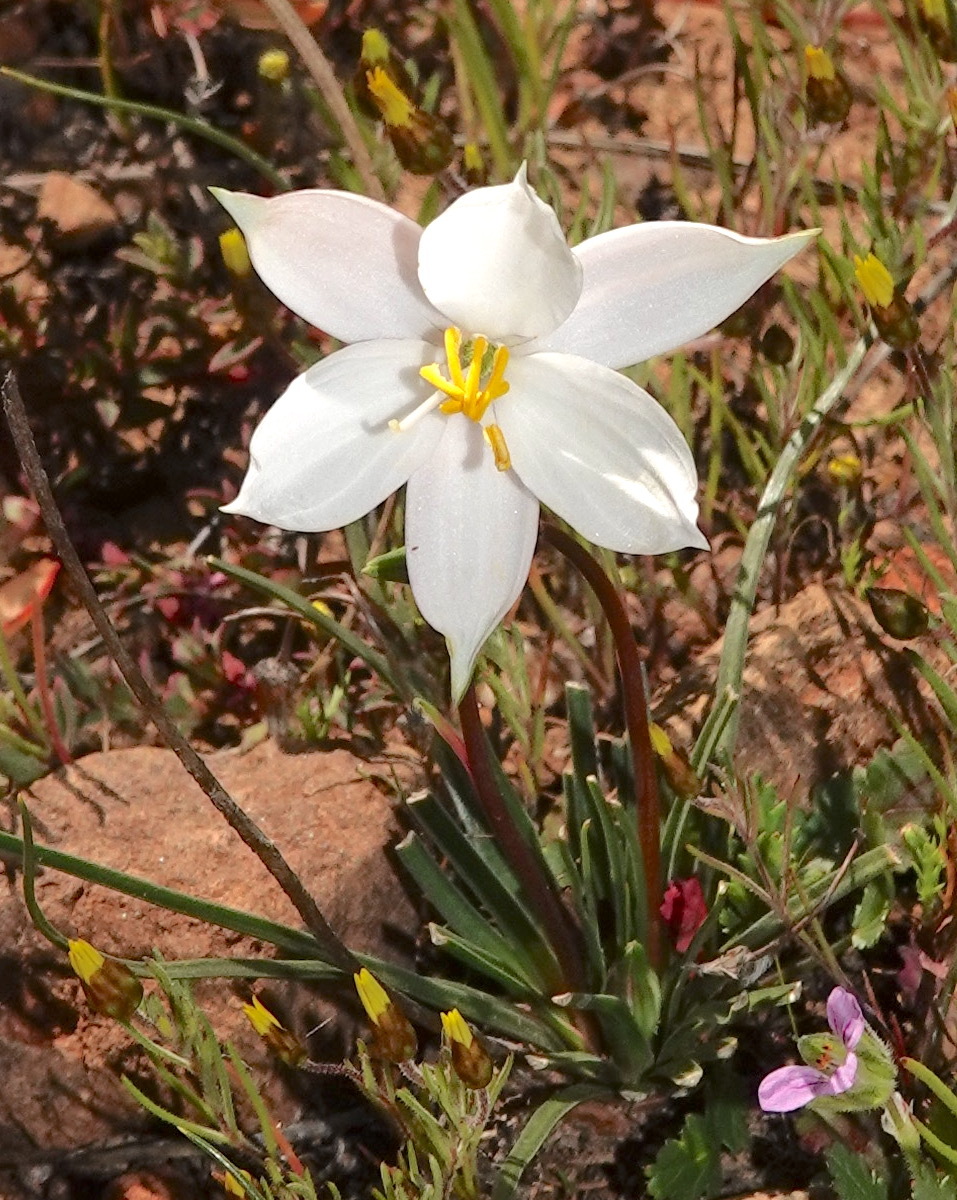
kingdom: Plantae
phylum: Tracheophyta
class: Liliopsida
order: Asparagales
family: Tecophilaeaceae
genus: Cyanella
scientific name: Cyanella alba
